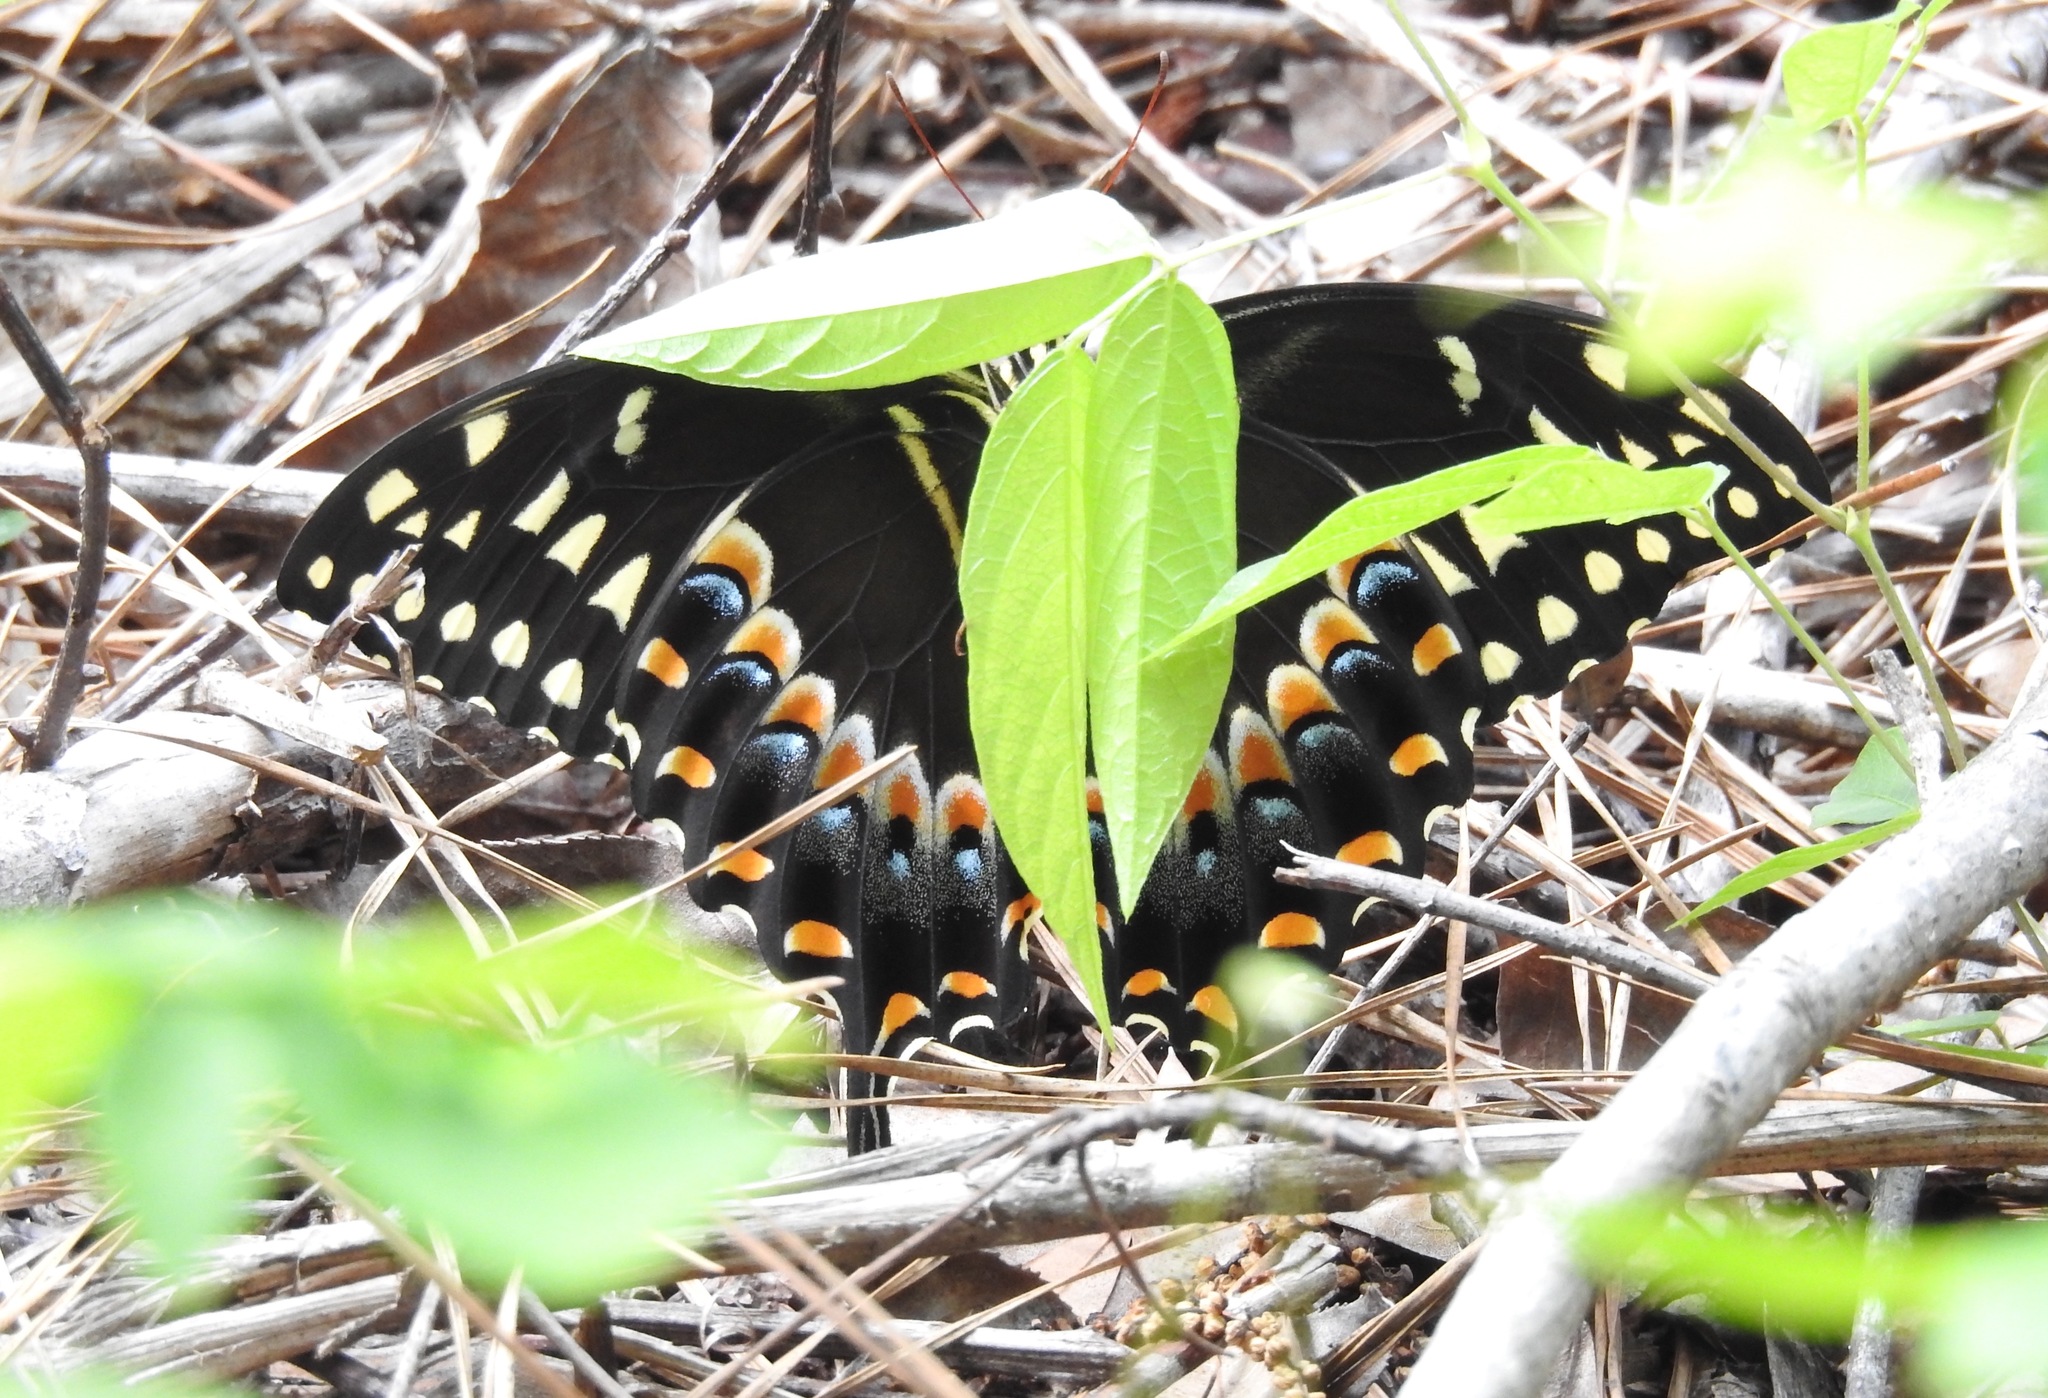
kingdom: Animalia
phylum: Arthropoda
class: Insecta
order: Lepidoptera
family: Papilionidae
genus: Papilio
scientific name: Papilio palamedes
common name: Palamedes swallowtail
